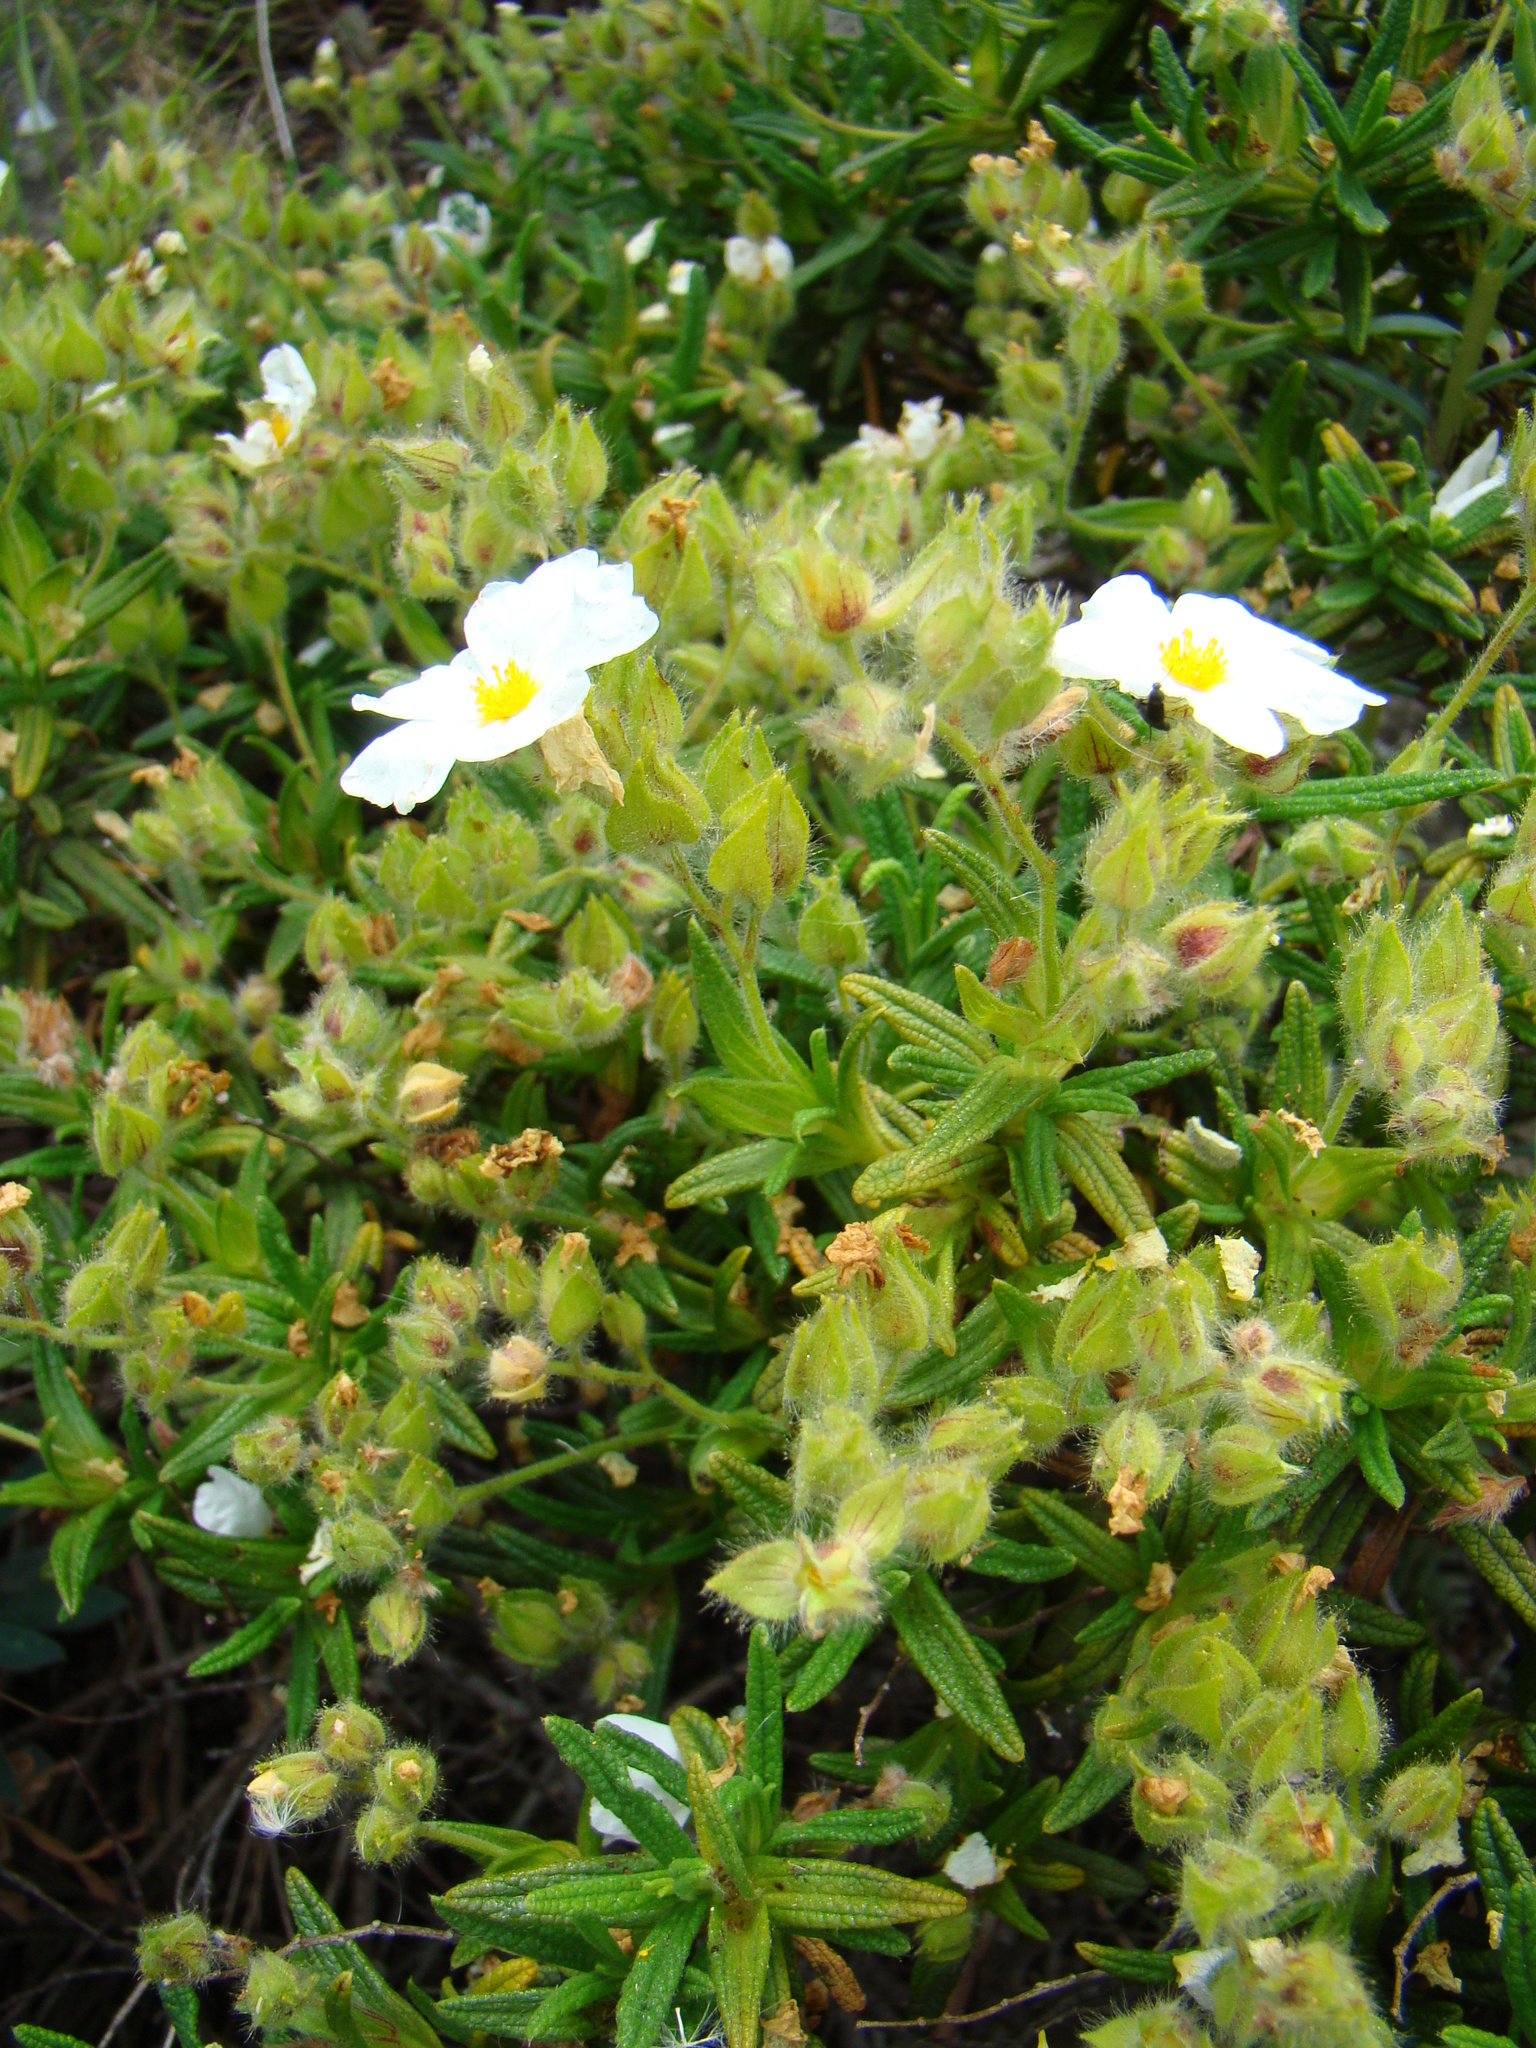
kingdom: Plantae
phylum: Tracheophyta
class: Magnoliopsida
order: Malvales
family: Cistaceae
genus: Cistus
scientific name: Cistus monspeliensis
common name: Montpelier cistus
